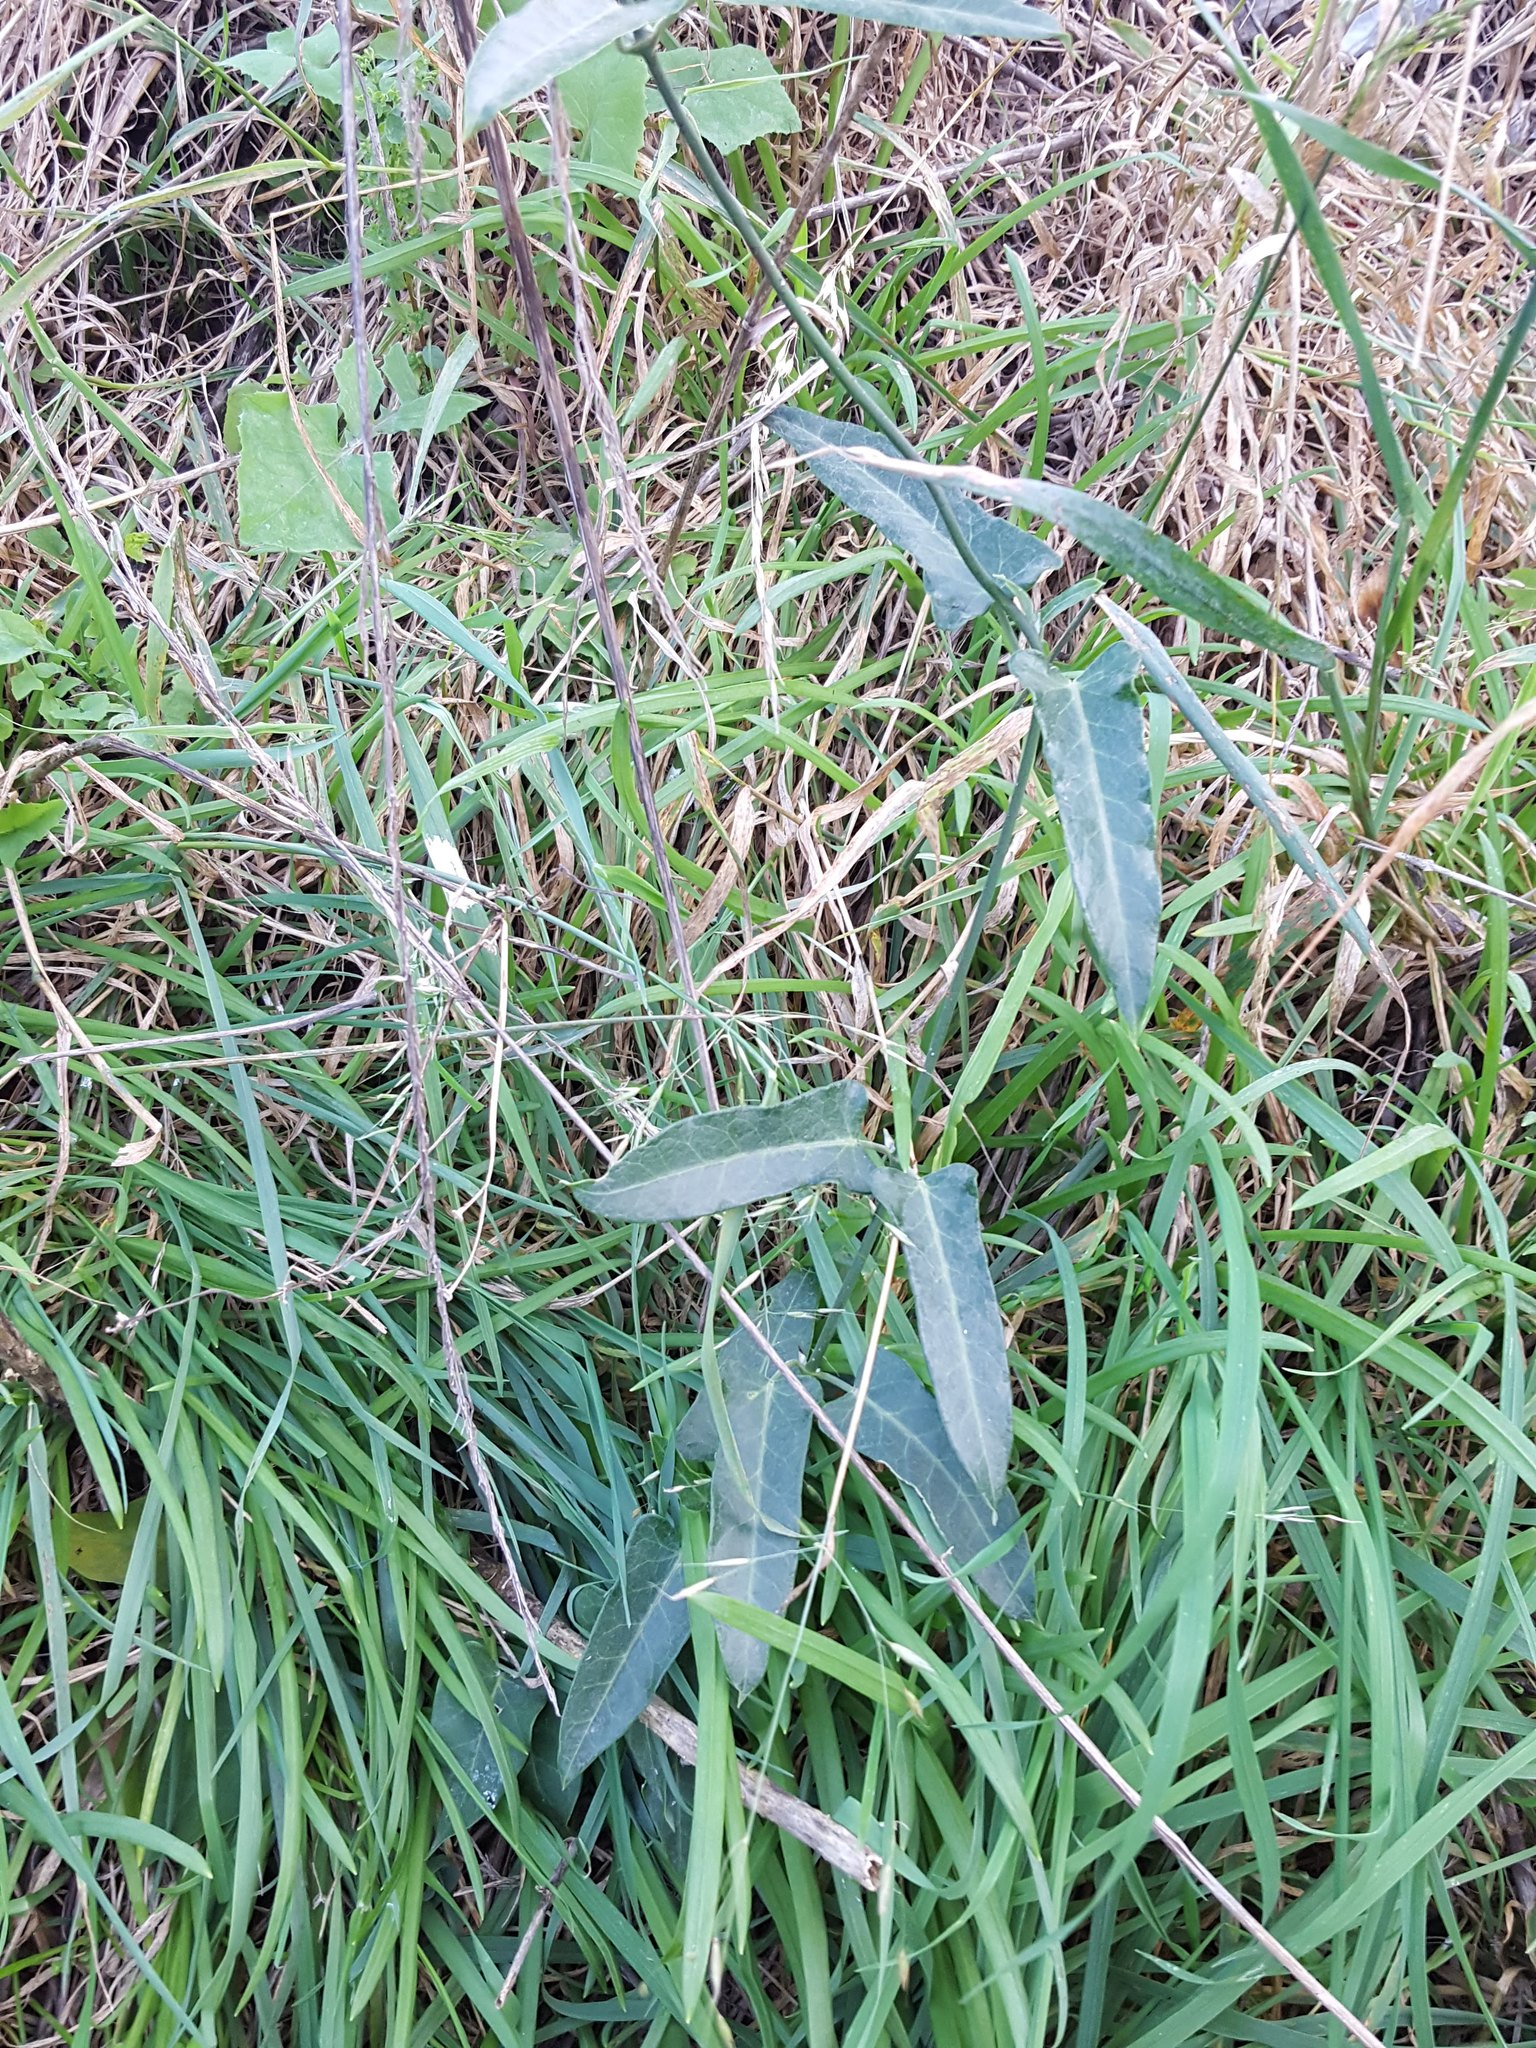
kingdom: Plantae
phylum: Tracheophyta
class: Magnoliopsida
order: Gentianales
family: Apocynaceae
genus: Araujia
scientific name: Araujia sericifera
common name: White bladderflower
